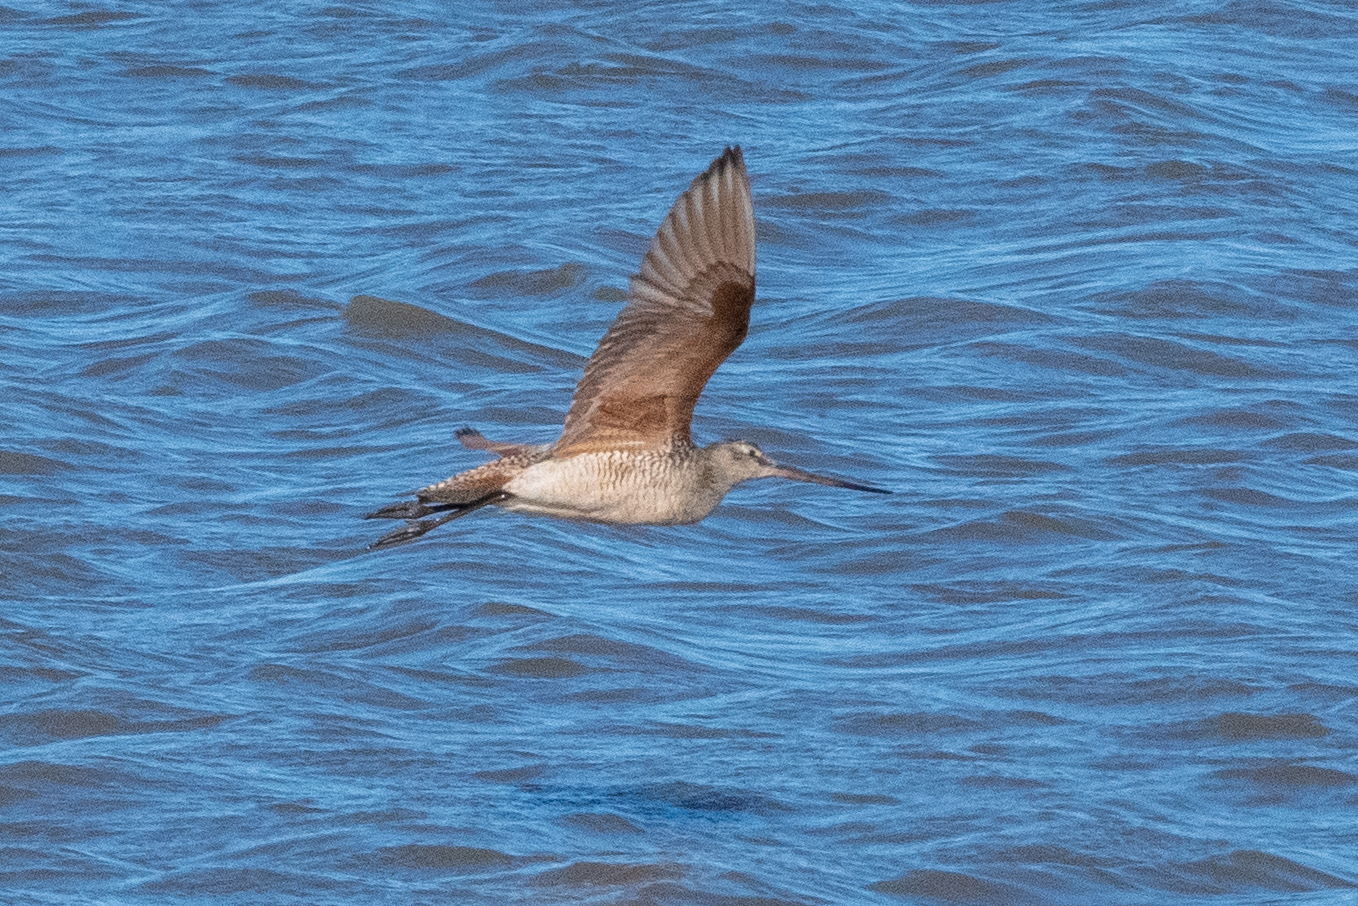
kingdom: Animalia
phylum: Chordata
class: Aves
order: Charadriiformes
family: Scolopacidae
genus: Limosa
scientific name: Limosa fedoa
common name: Marbled godwit
